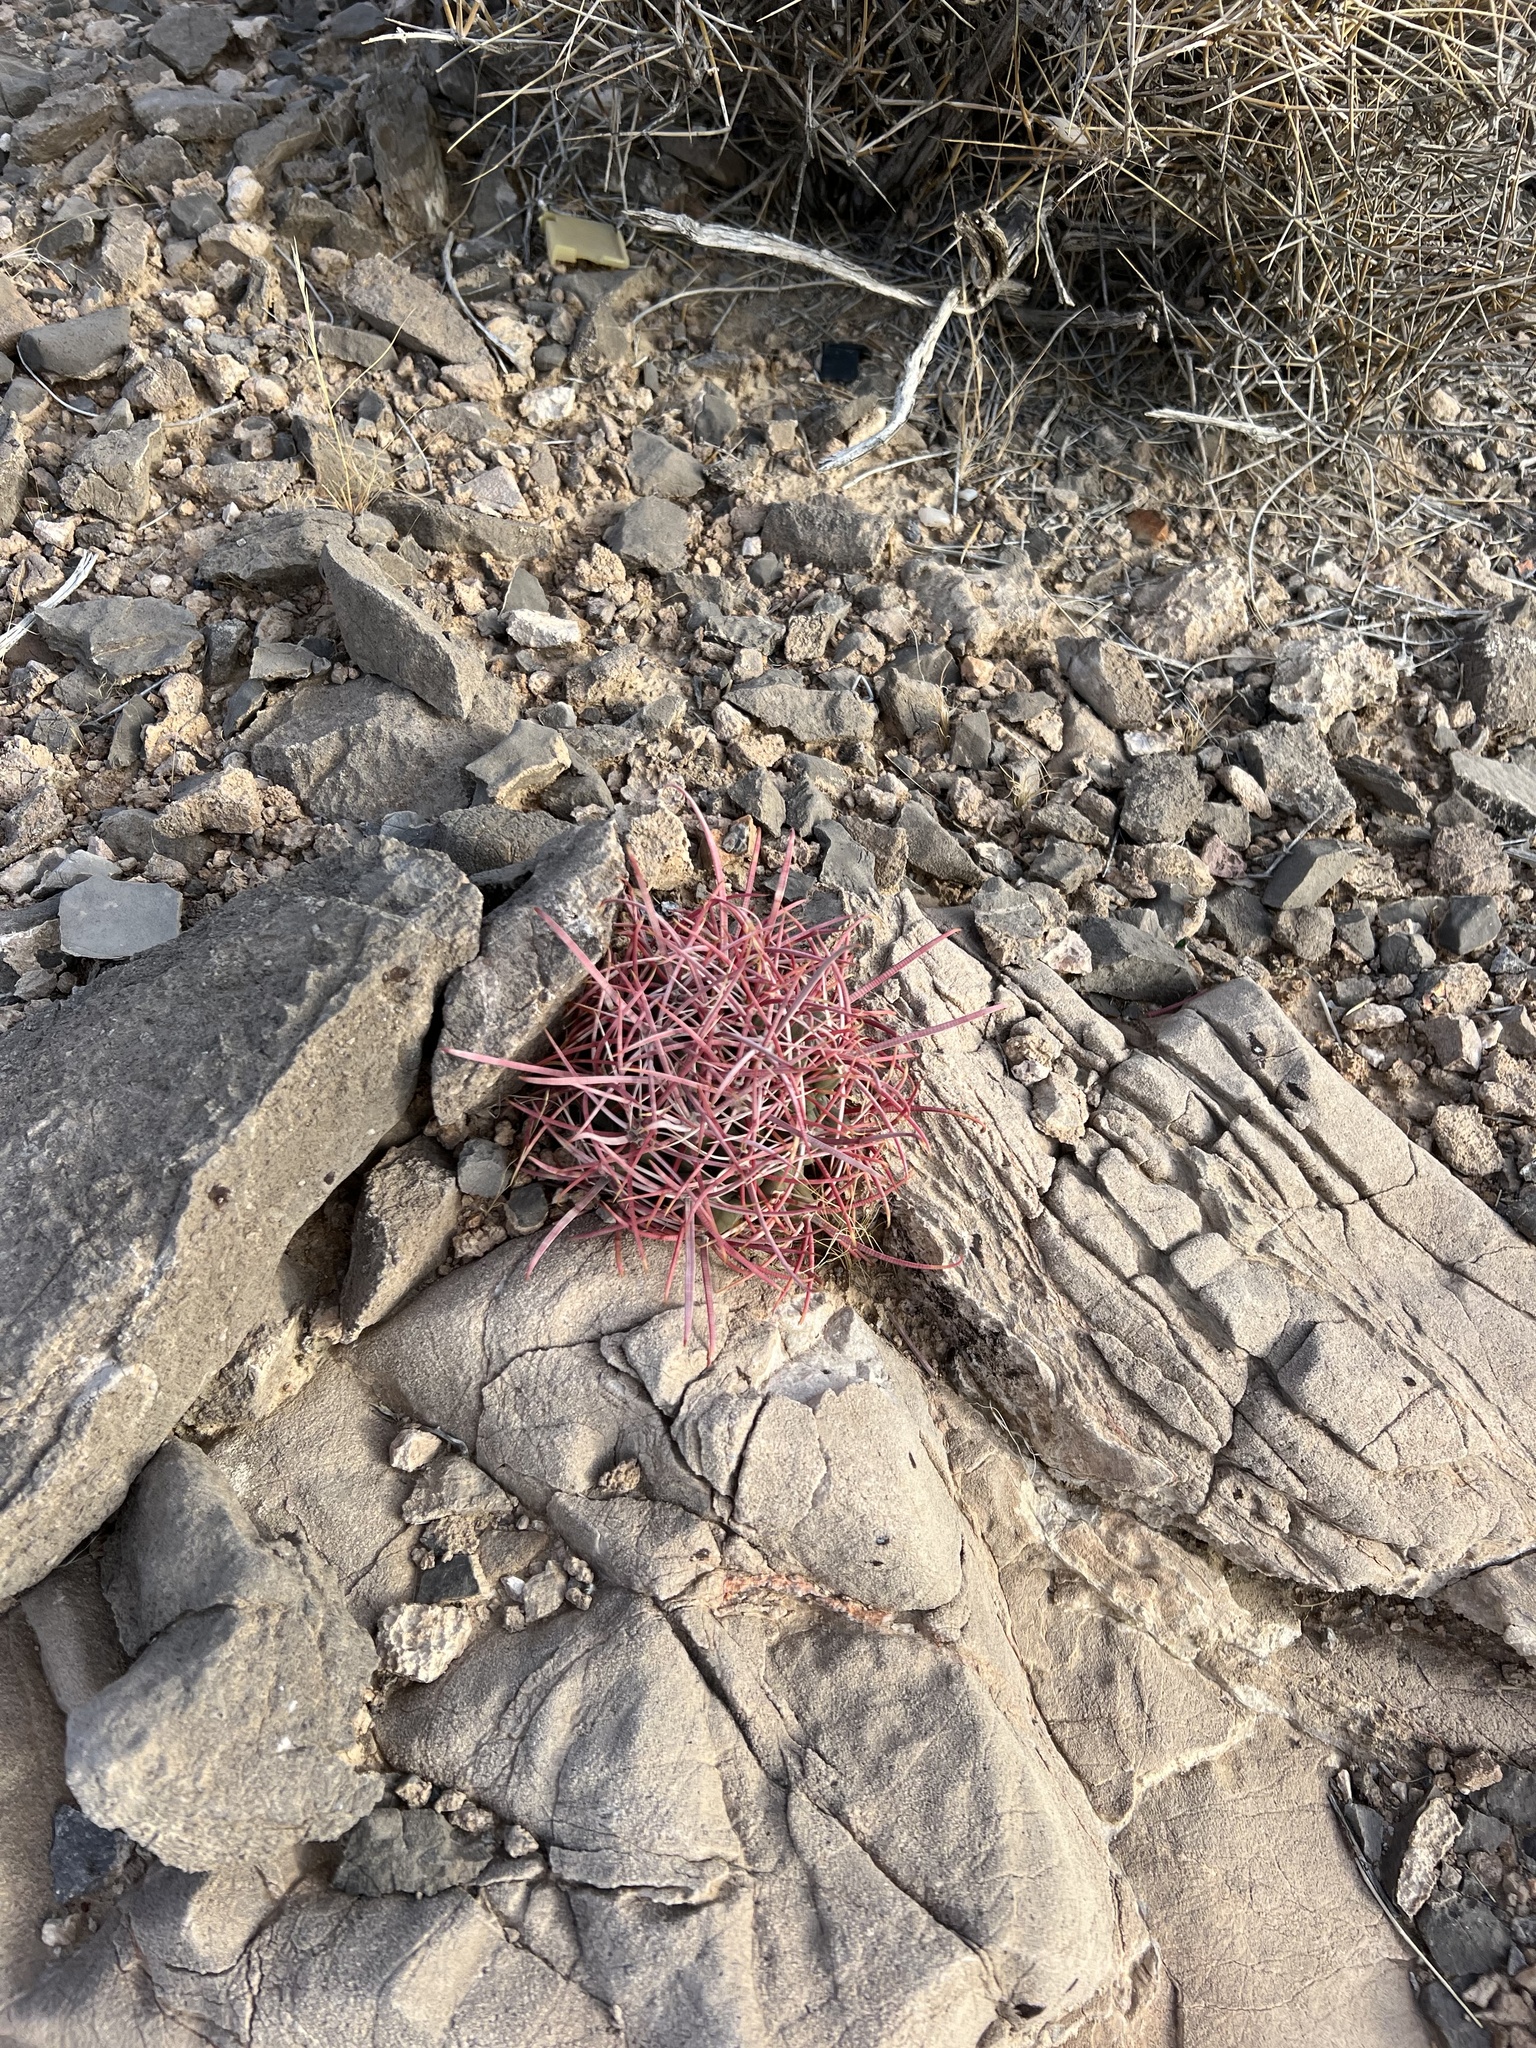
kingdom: Plantae
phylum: Tracheophyta
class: Magnoliopsida
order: Caryophyllales
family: Cactaceae
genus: Ferocactus
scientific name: Ferocactus cylindraceus
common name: California barrel cactus
